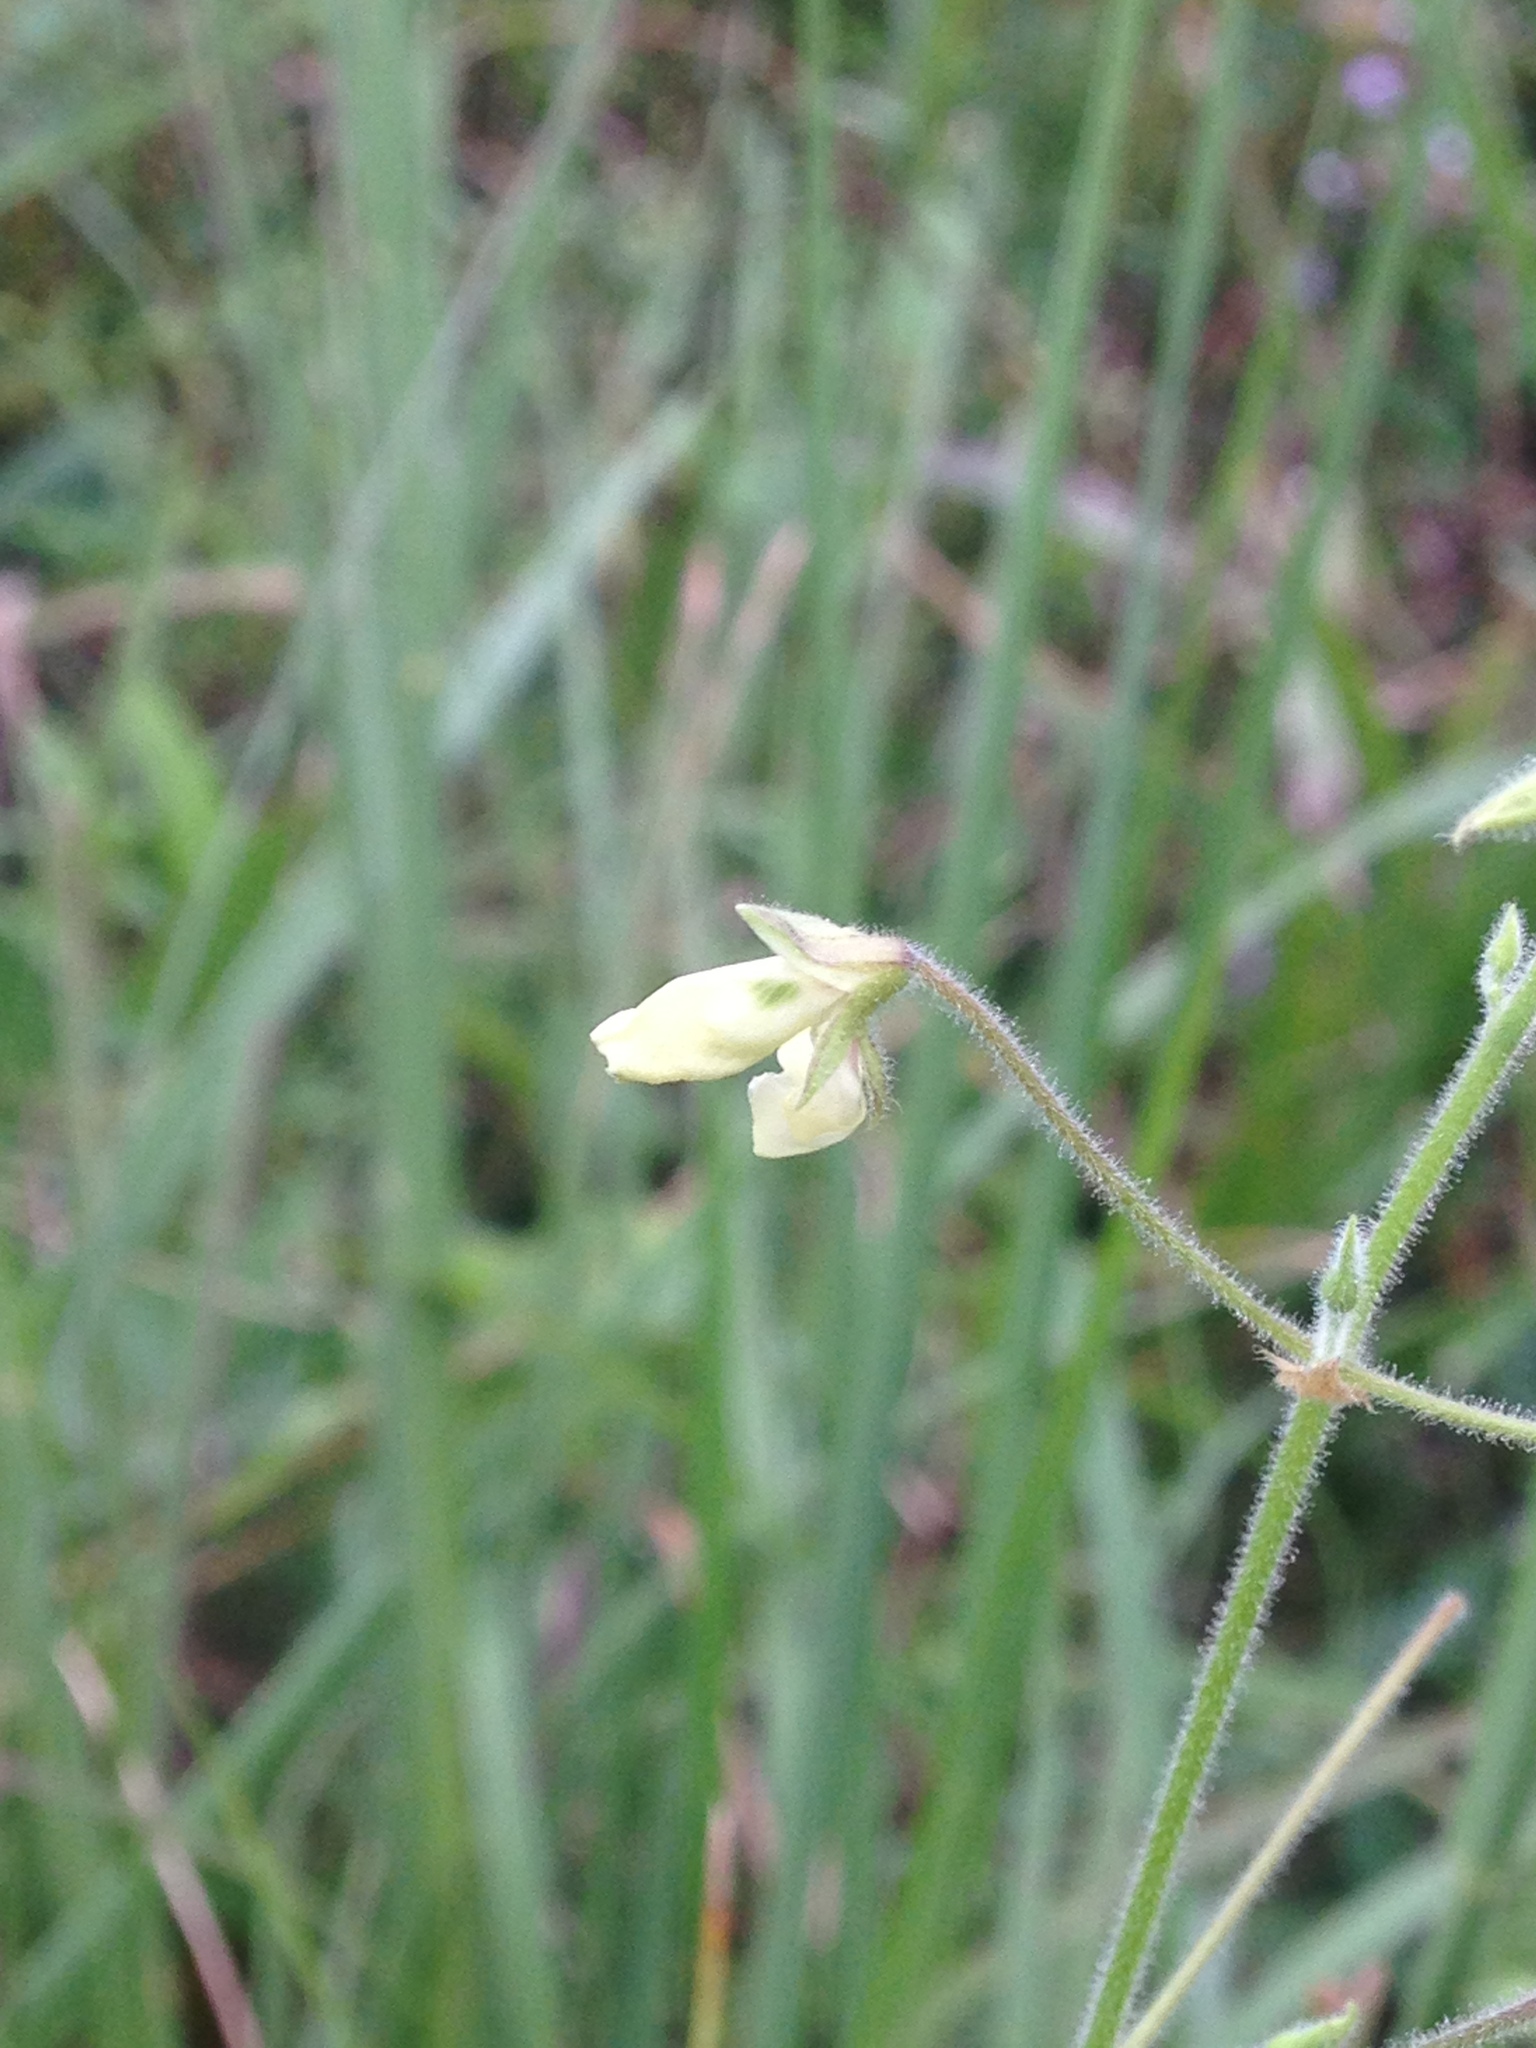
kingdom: Plantae
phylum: Tracheophyta
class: Magnoliopsida
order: Fabales
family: Fabaceae
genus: Desmodium
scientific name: Desmodium ochroleucum
